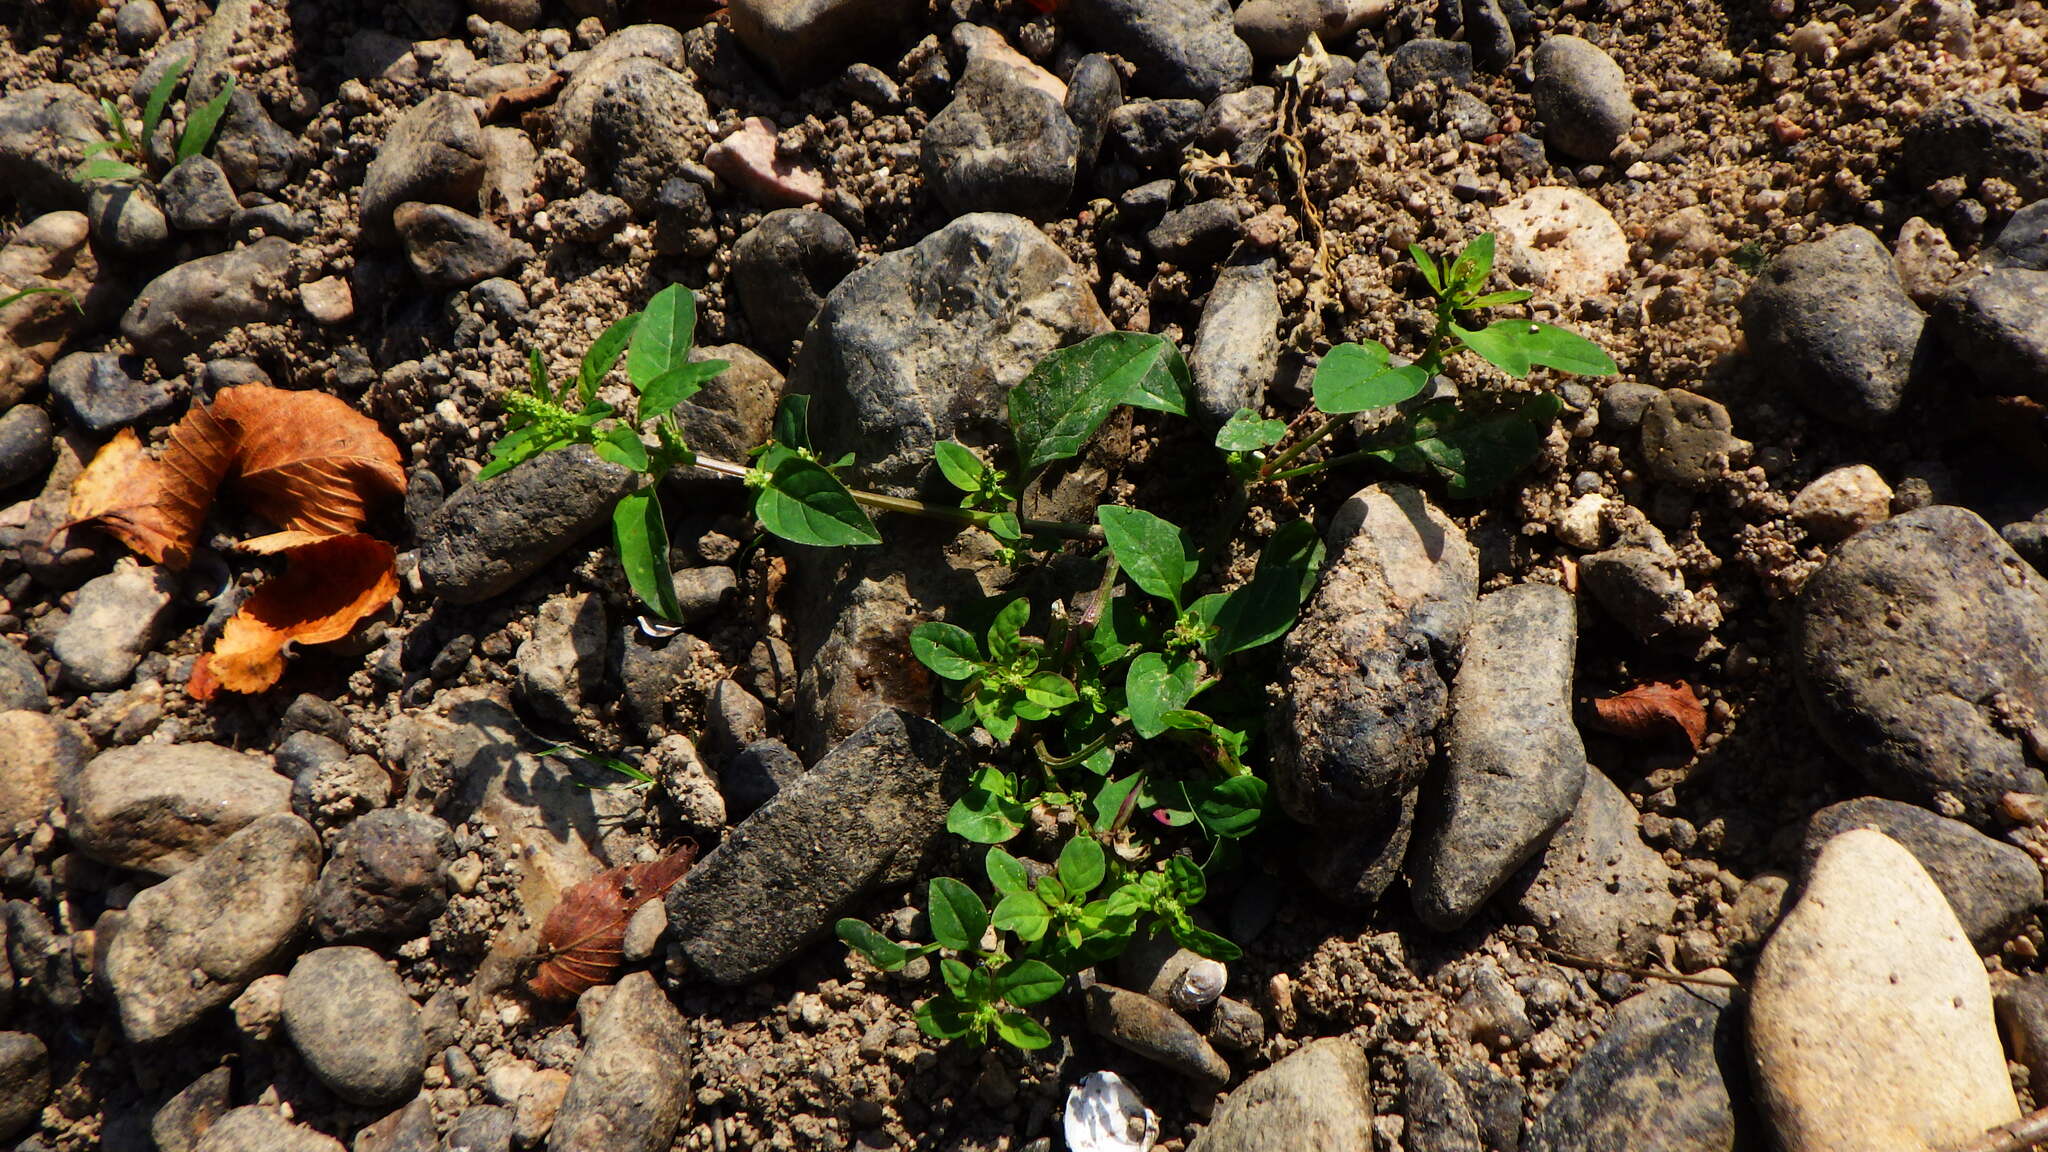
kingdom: Plantae
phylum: Tracheophyta
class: Magnoliopsida
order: Caryophyllales
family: Amaranthaceae
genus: Lipandra
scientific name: Lipandra polysperma
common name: Many-seed goosefoot
